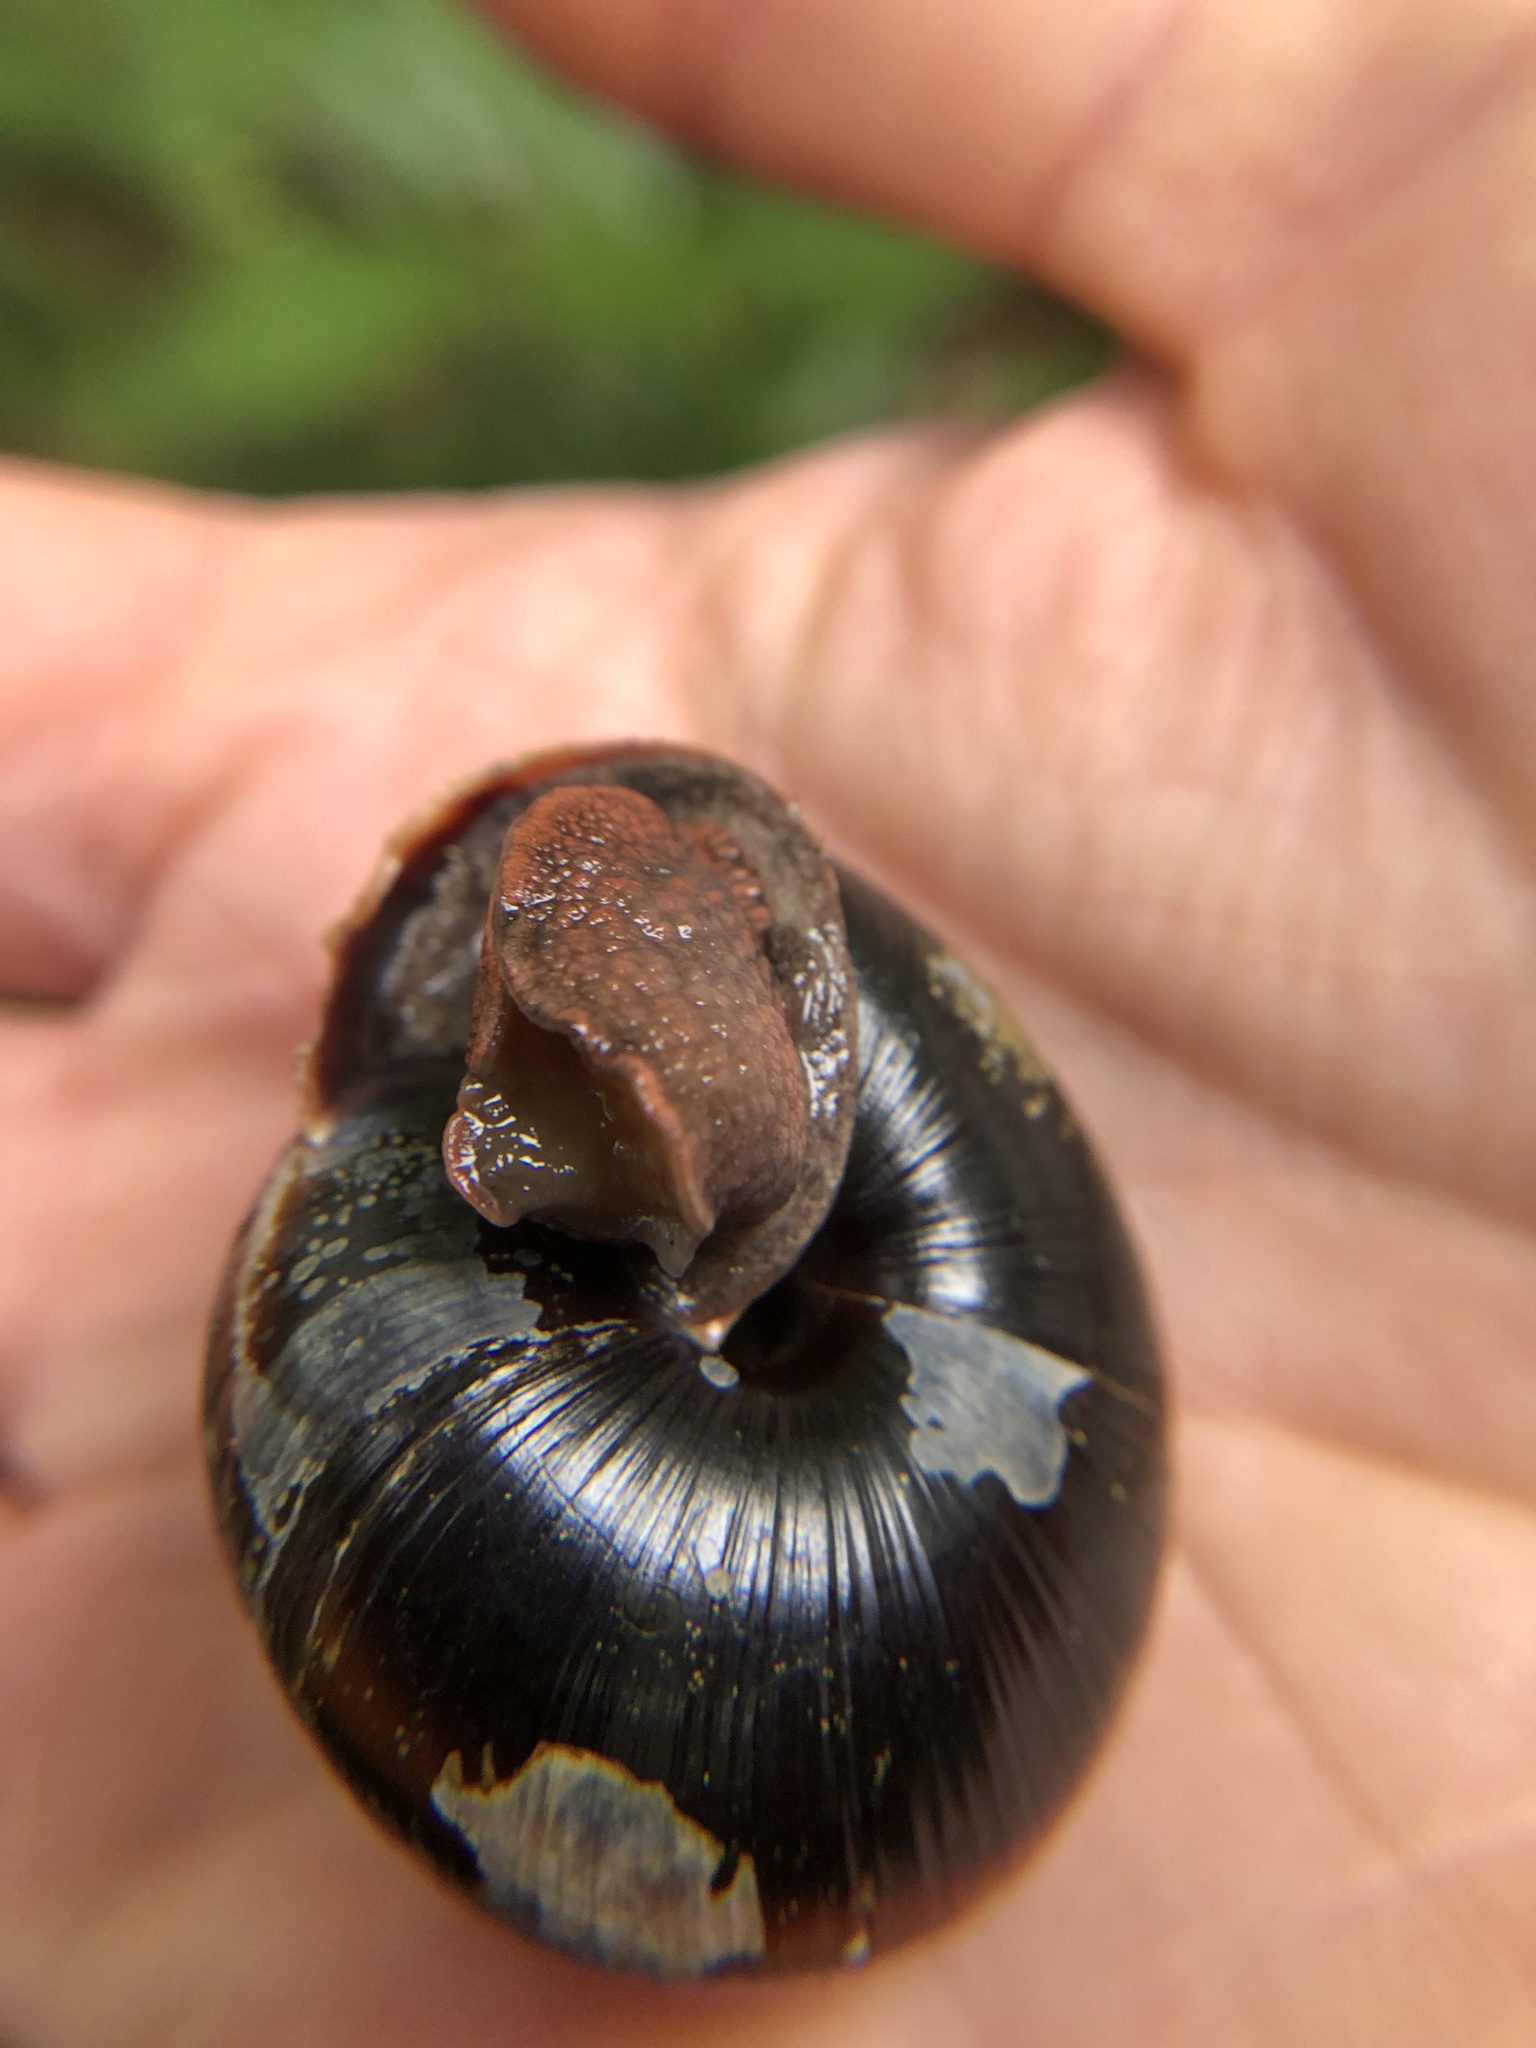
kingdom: Animalia
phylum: Mollusca
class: Gastropoda
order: Stylommatophora
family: Xanthonychidae
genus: Monadenia
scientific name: Monadenia fidelis
